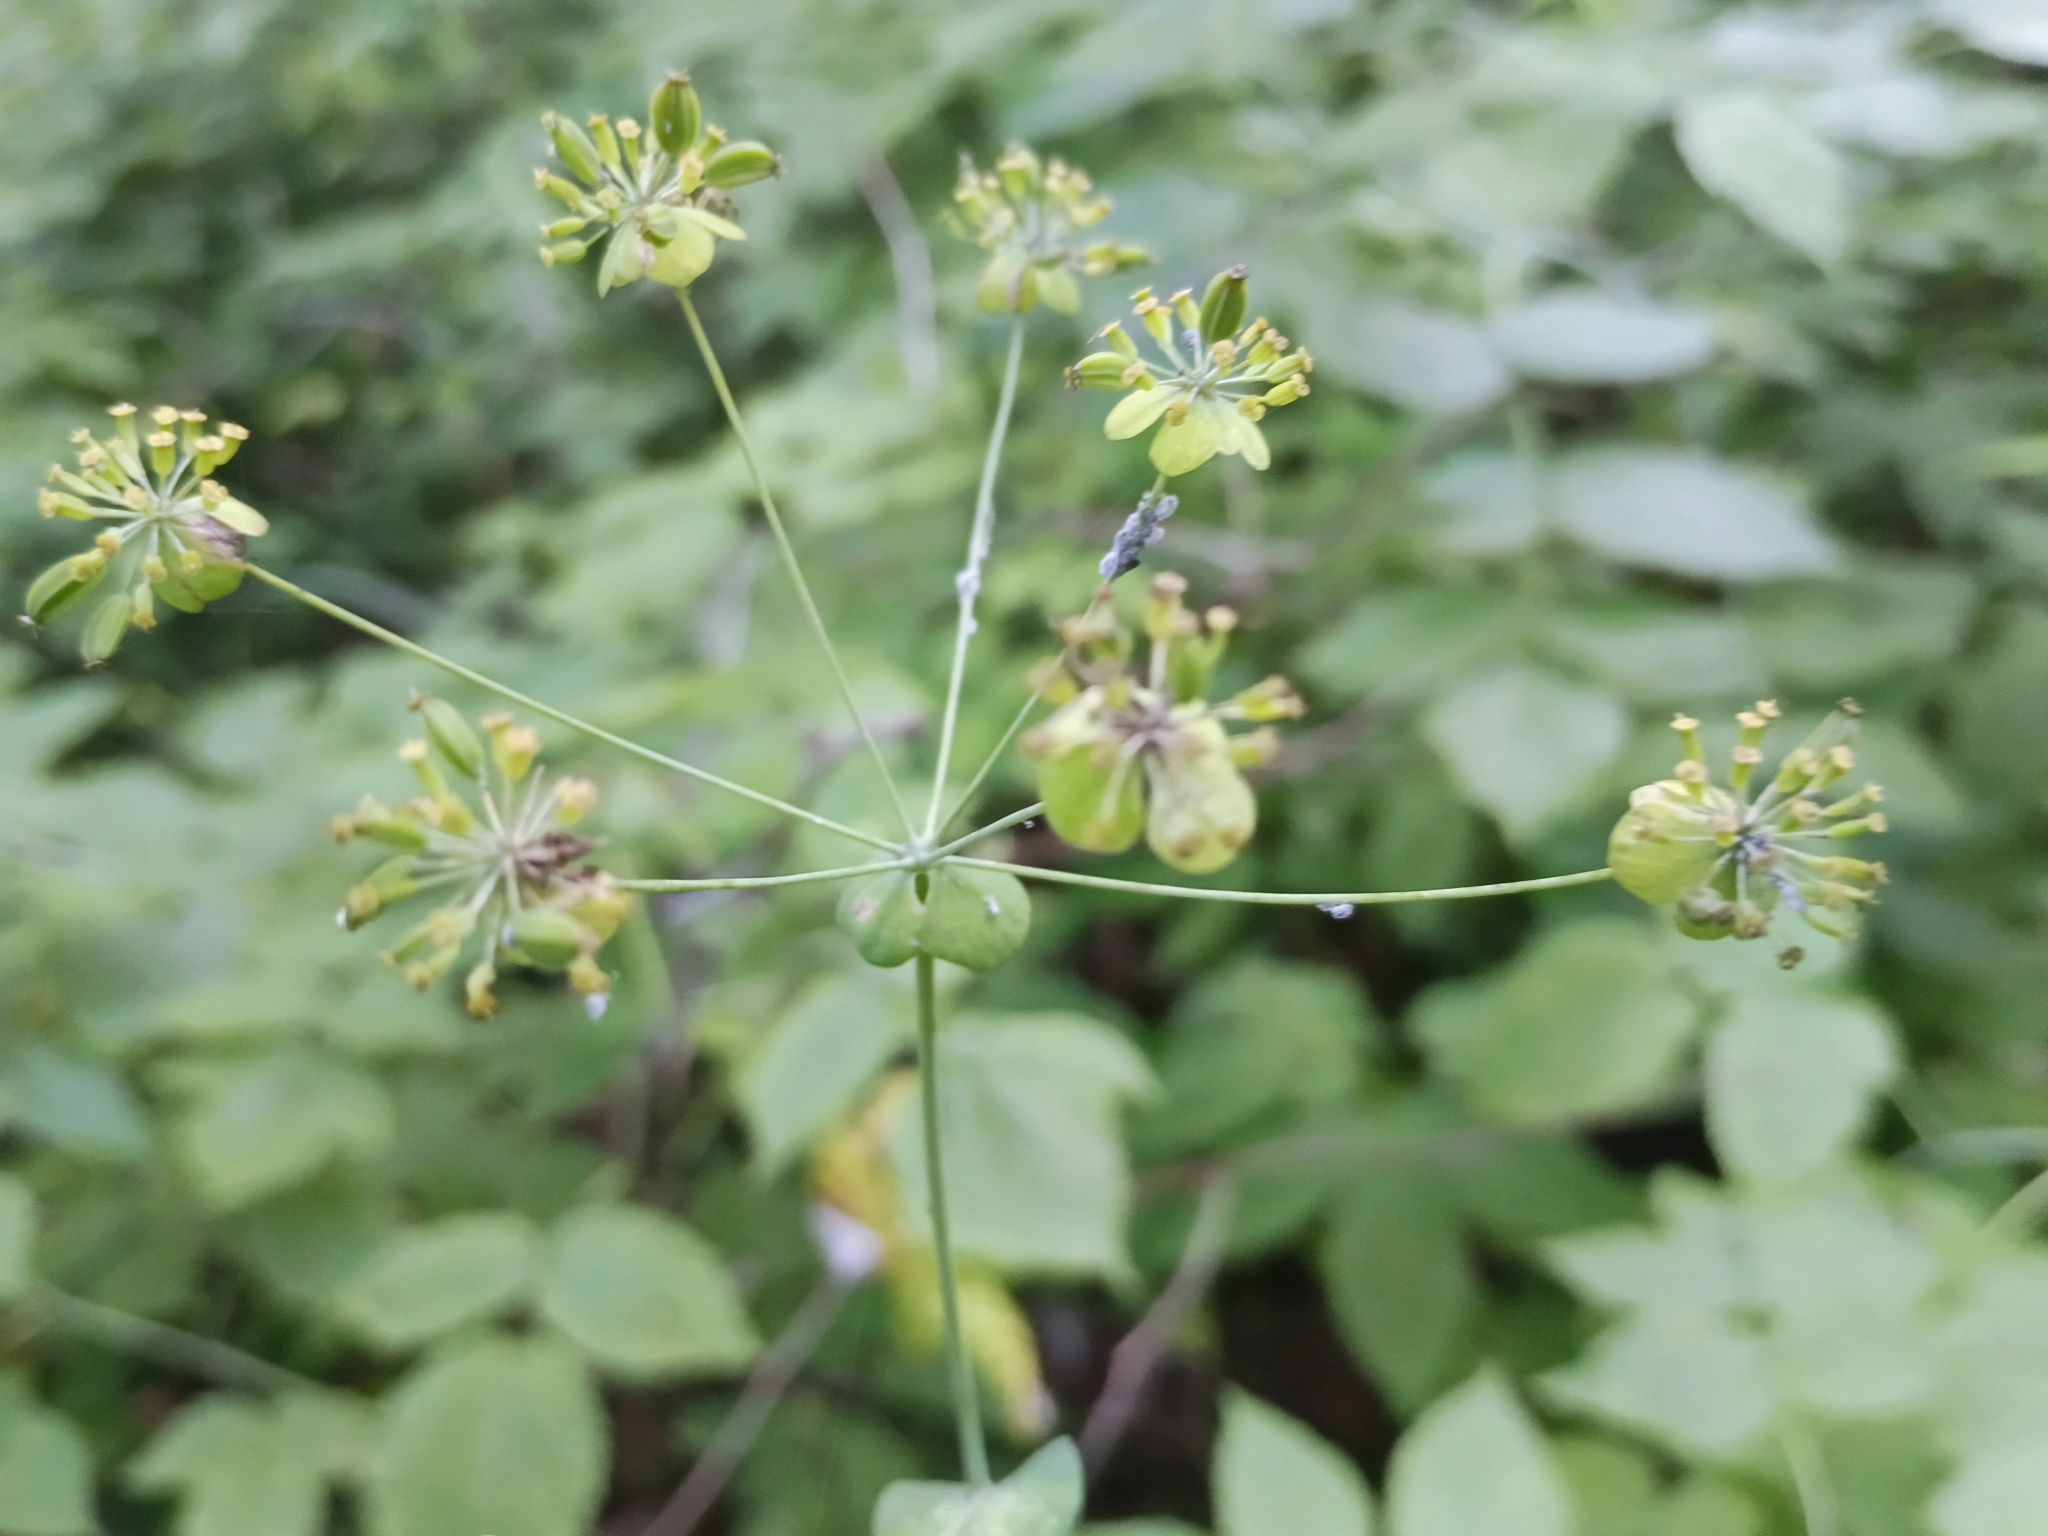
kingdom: Plantae
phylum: Tracheophyta
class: Magnoliopsida
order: Apiales
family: Apiaceae
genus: Bupleurum
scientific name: Bupleurum aureum
